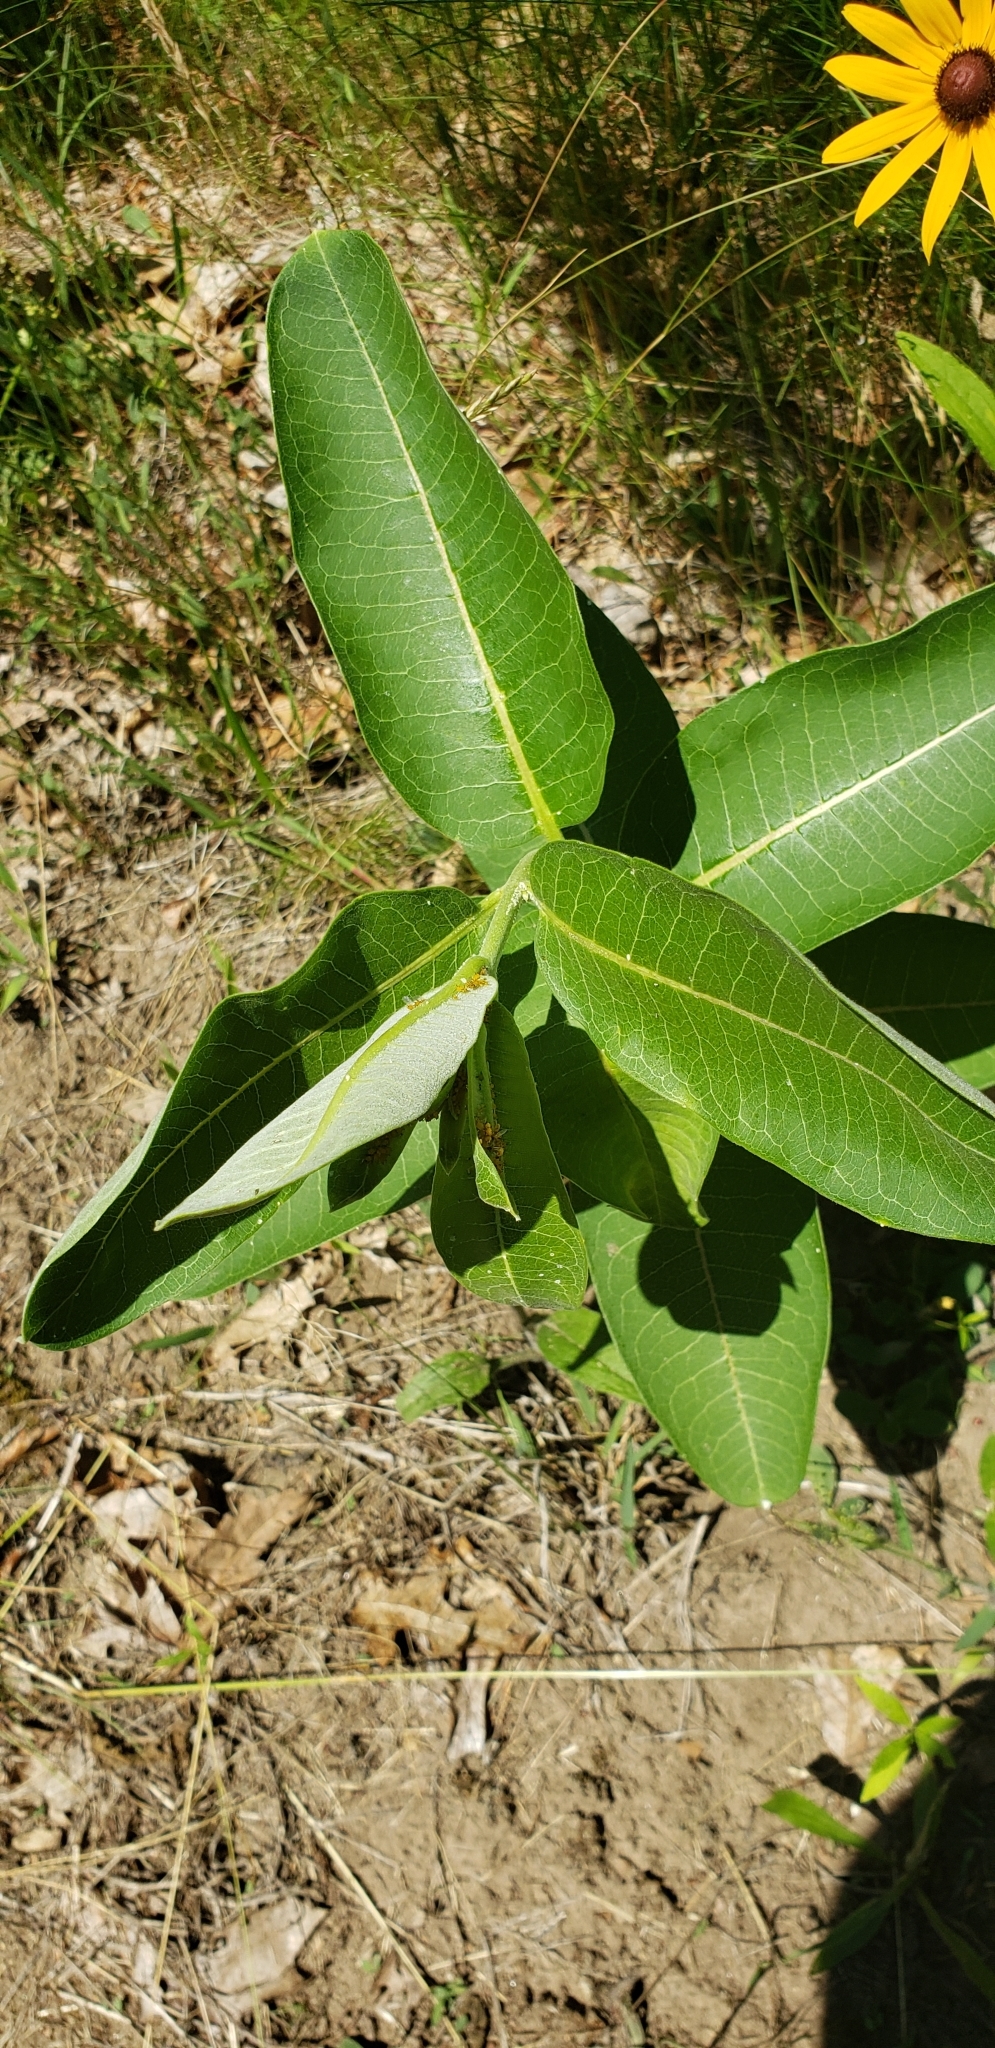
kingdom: Animalia
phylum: Arthropoda
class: Insecta
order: Hemiptera
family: Aphididae
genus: Aphis
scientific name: Aphis nerii
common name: Oleander aphid
